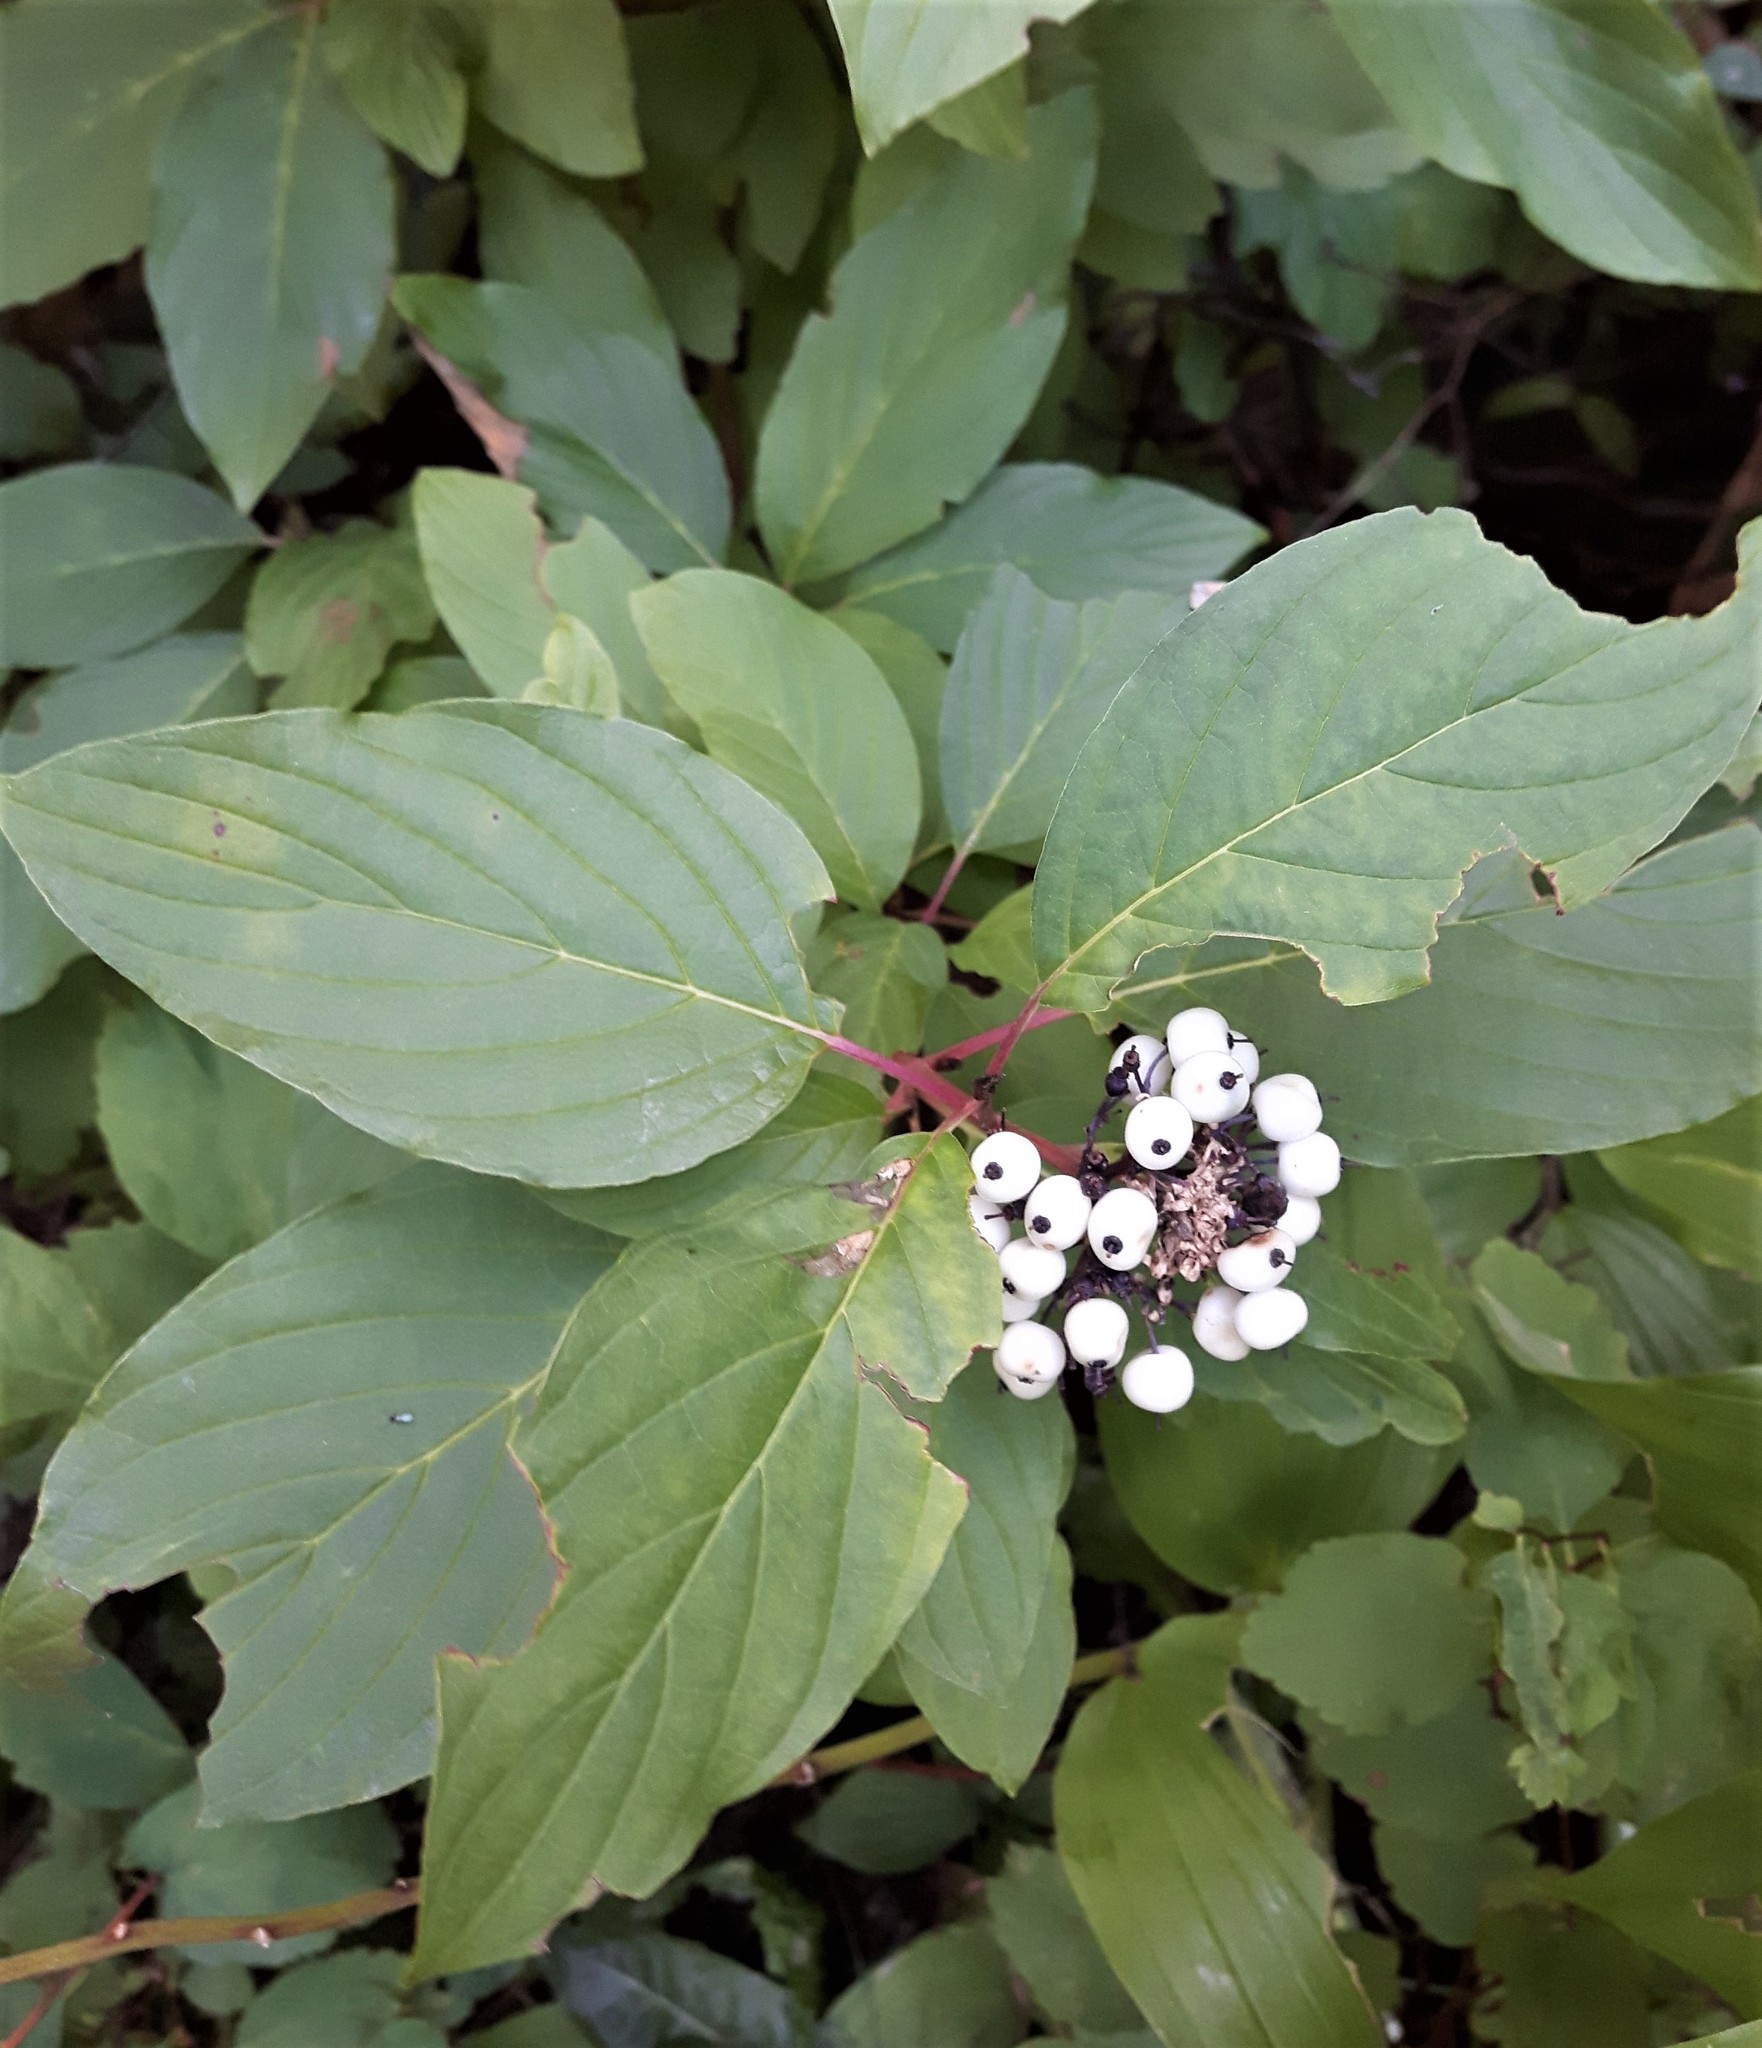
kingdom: Plantae
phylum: Tracheophyta
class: Magnoliopsida
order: Cornales
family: Cornaceae
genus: Cornus
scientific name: Cornus sericea
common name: Red-osier dogwood
